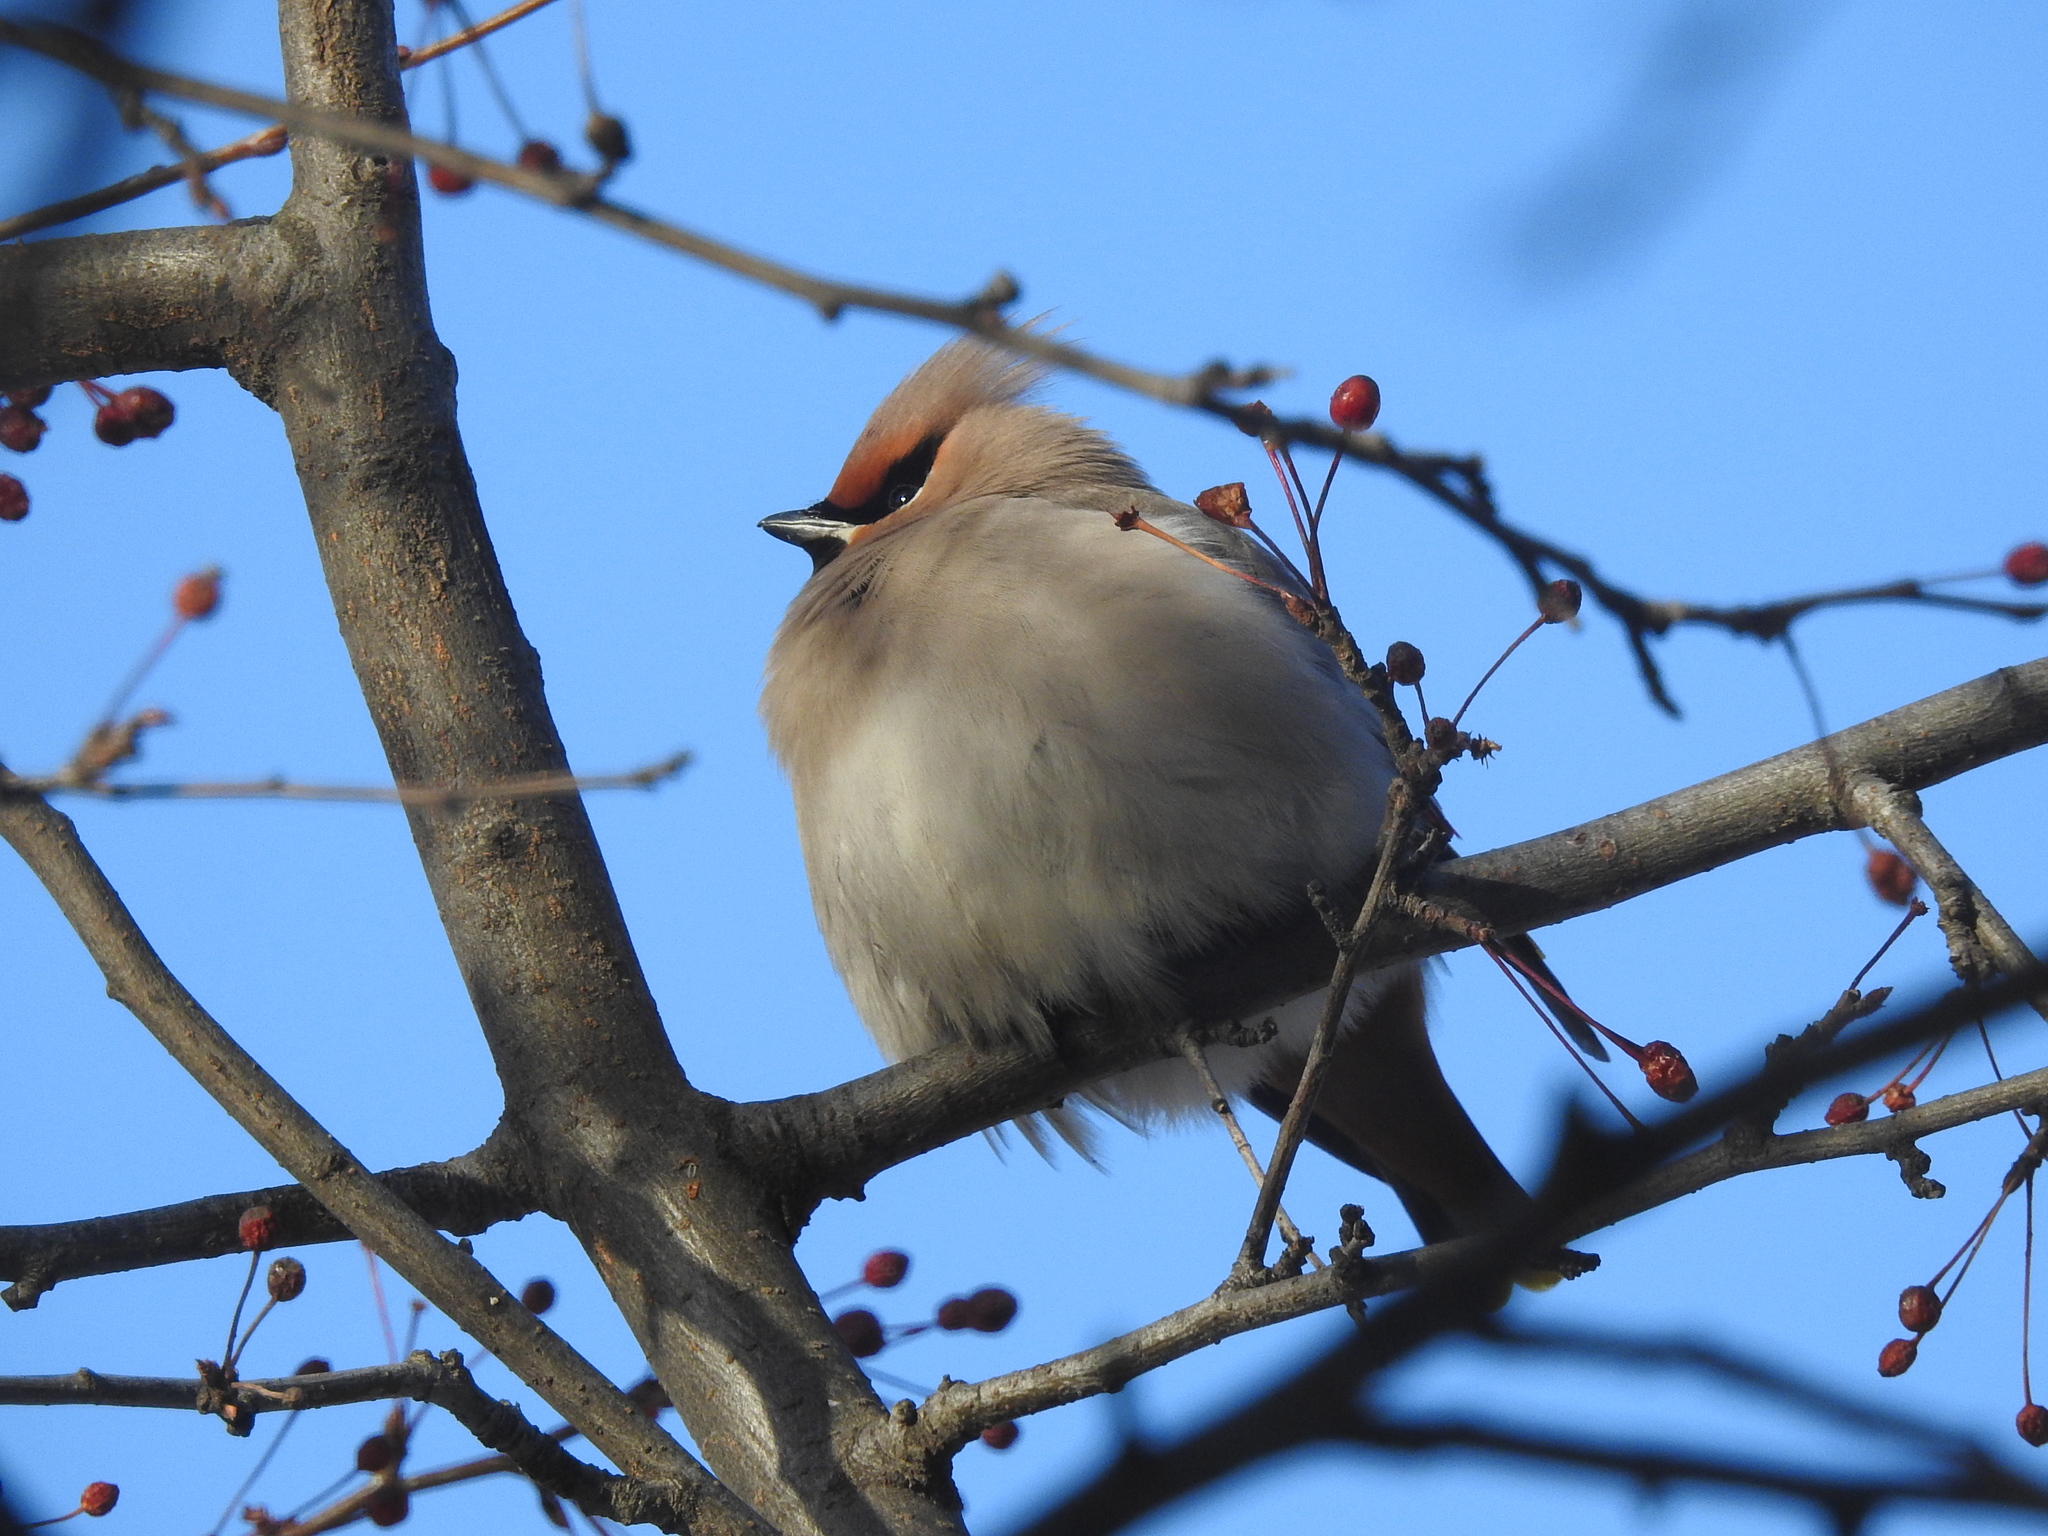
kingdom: Animalia
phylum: Chordata
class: Aves
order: Passeriformes
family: Bombycillidae
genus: Bombycilla
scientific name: Bombycilla garrulus
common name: Bohemian waxwing
